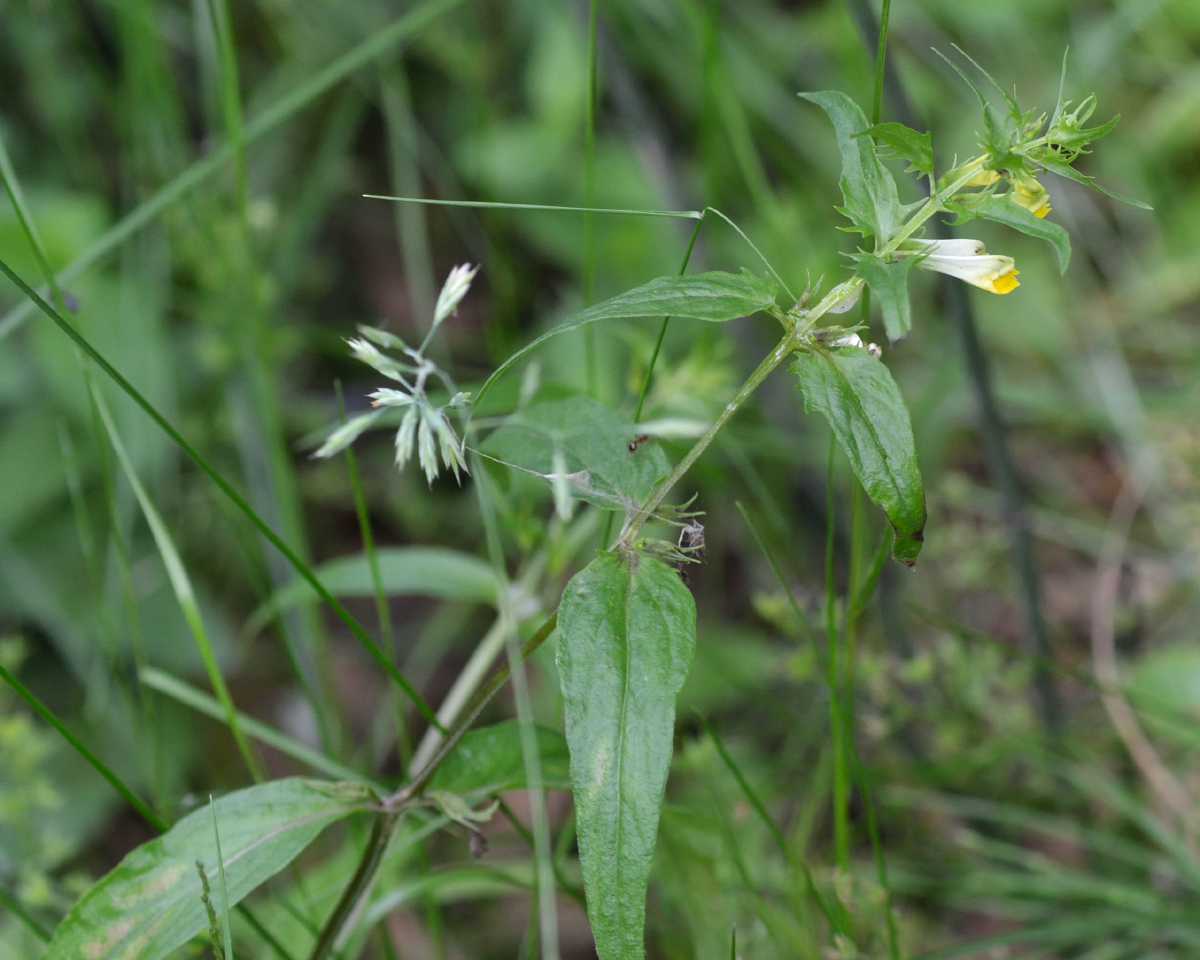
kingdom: Plantae
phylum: Tracheophyta
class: Magnoliopsida
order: Lamiales
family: Orobanchaceae
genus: Melampyrum
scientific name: Melampyrum pratense
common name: Common cow-wheat
